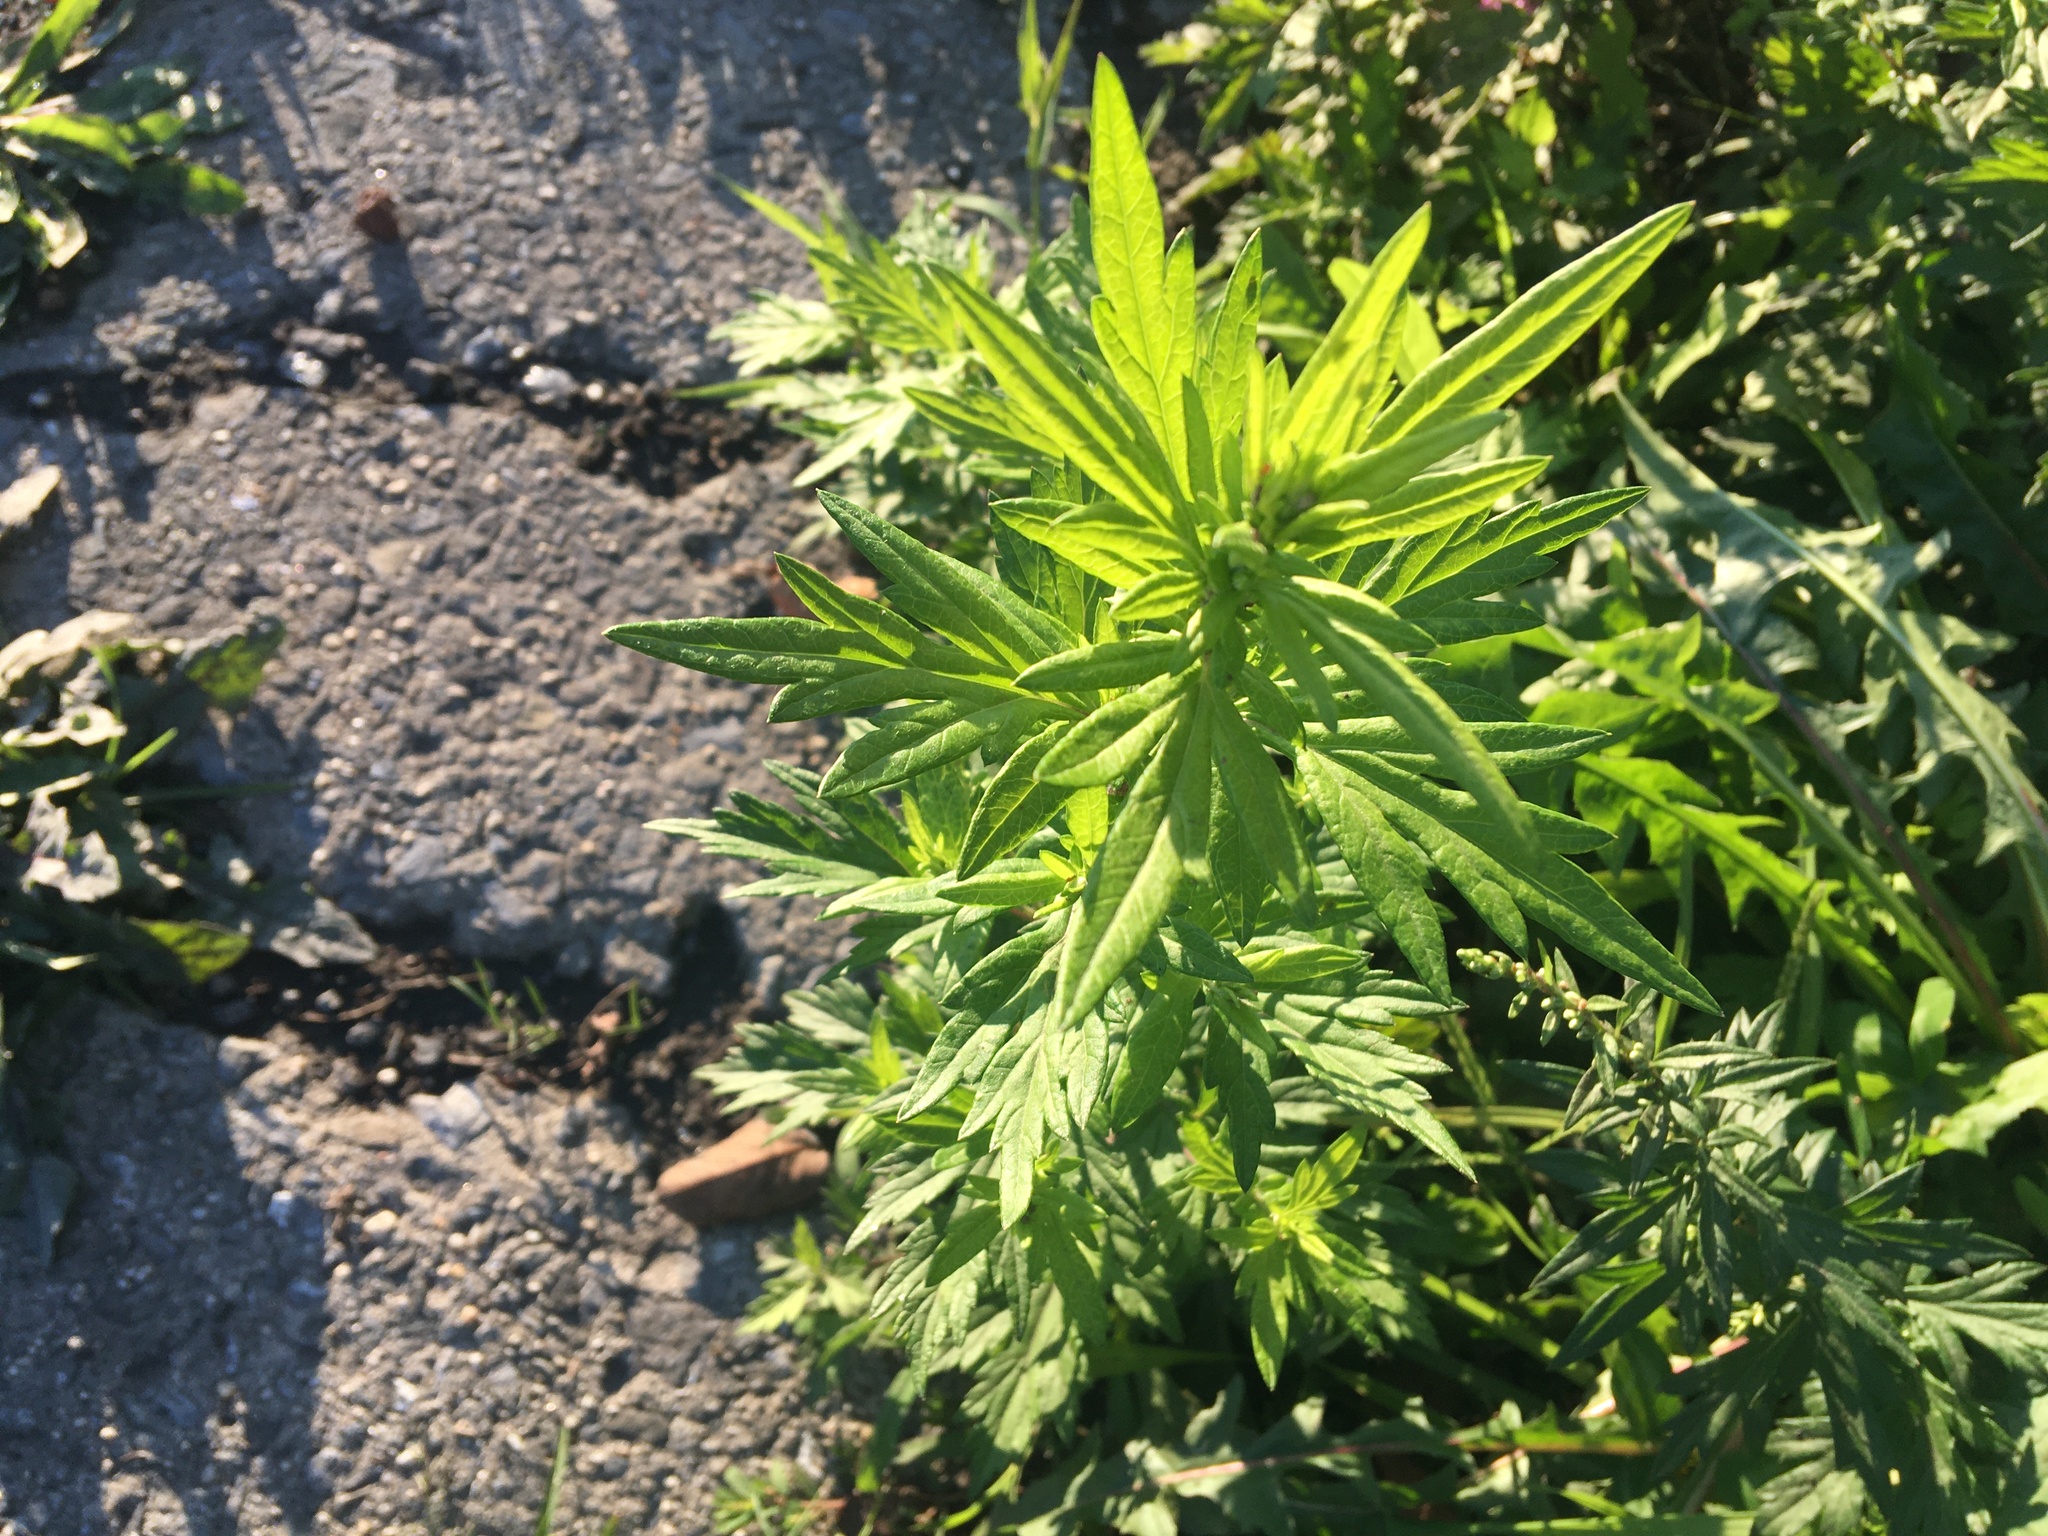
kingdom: Plantae
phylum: Tracheophyta
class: Magnoliopsida
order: Asterales
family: Asteraceae
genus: Artemisia
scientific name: Artemisia vulgaris
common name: Mugwort
